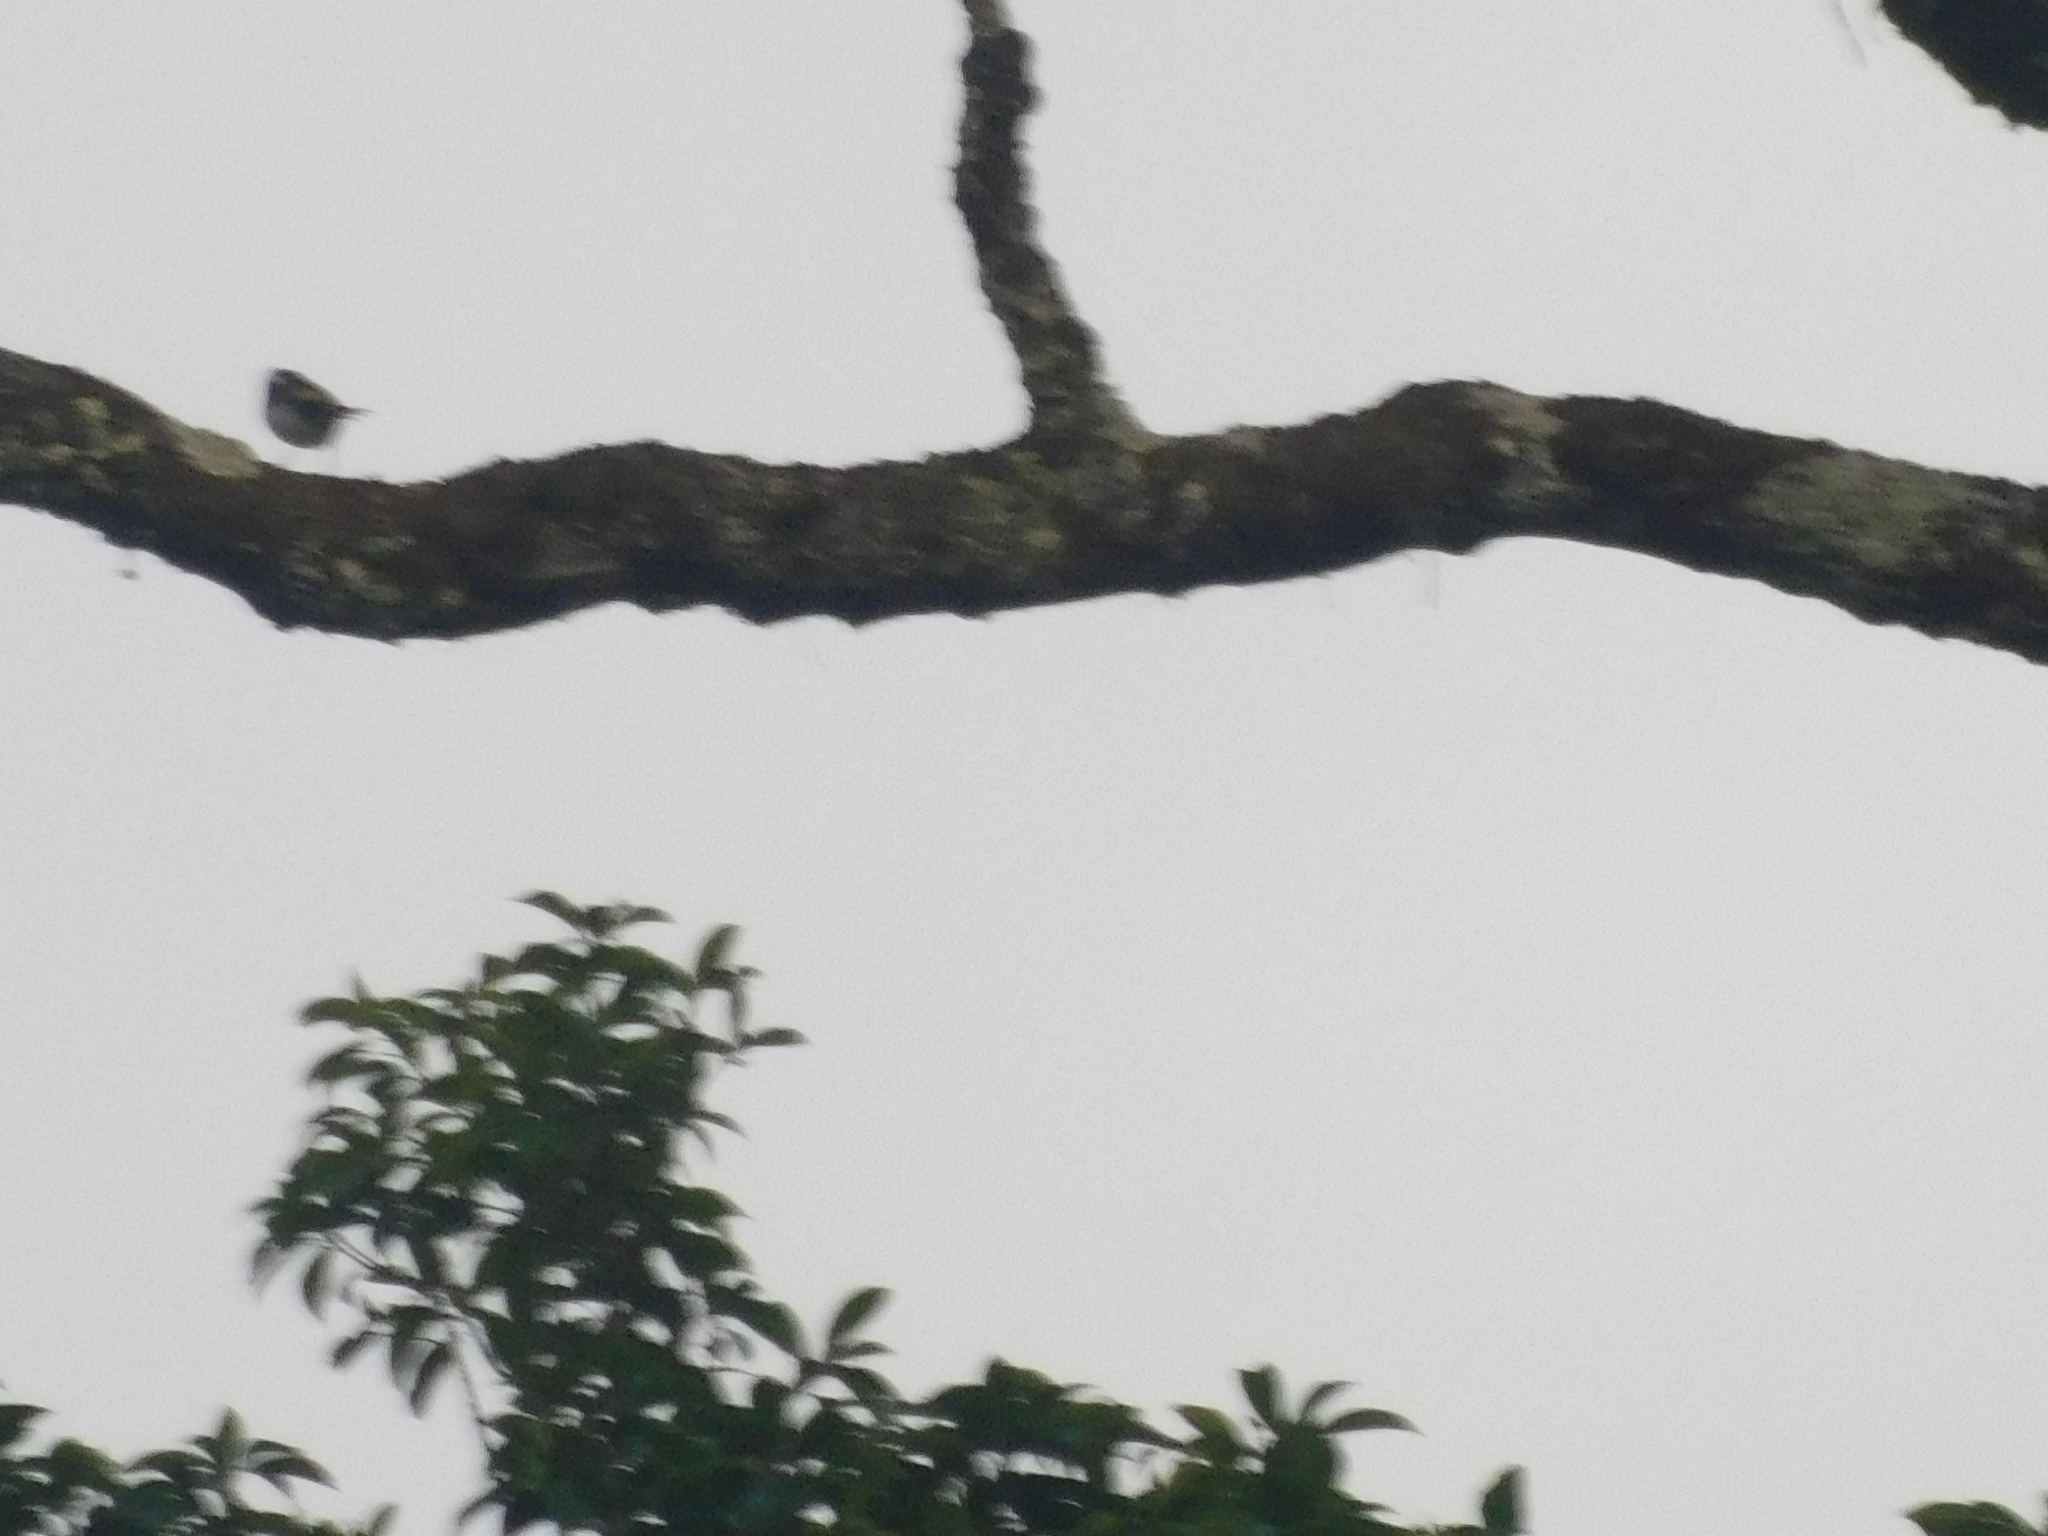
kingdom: Animalia
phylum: Chordata
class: Aves
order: Passeriformes
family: Vireonidae
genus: Pteruthius
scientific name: Pteruthius flaviscapis
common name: Pied shrike-babbler
